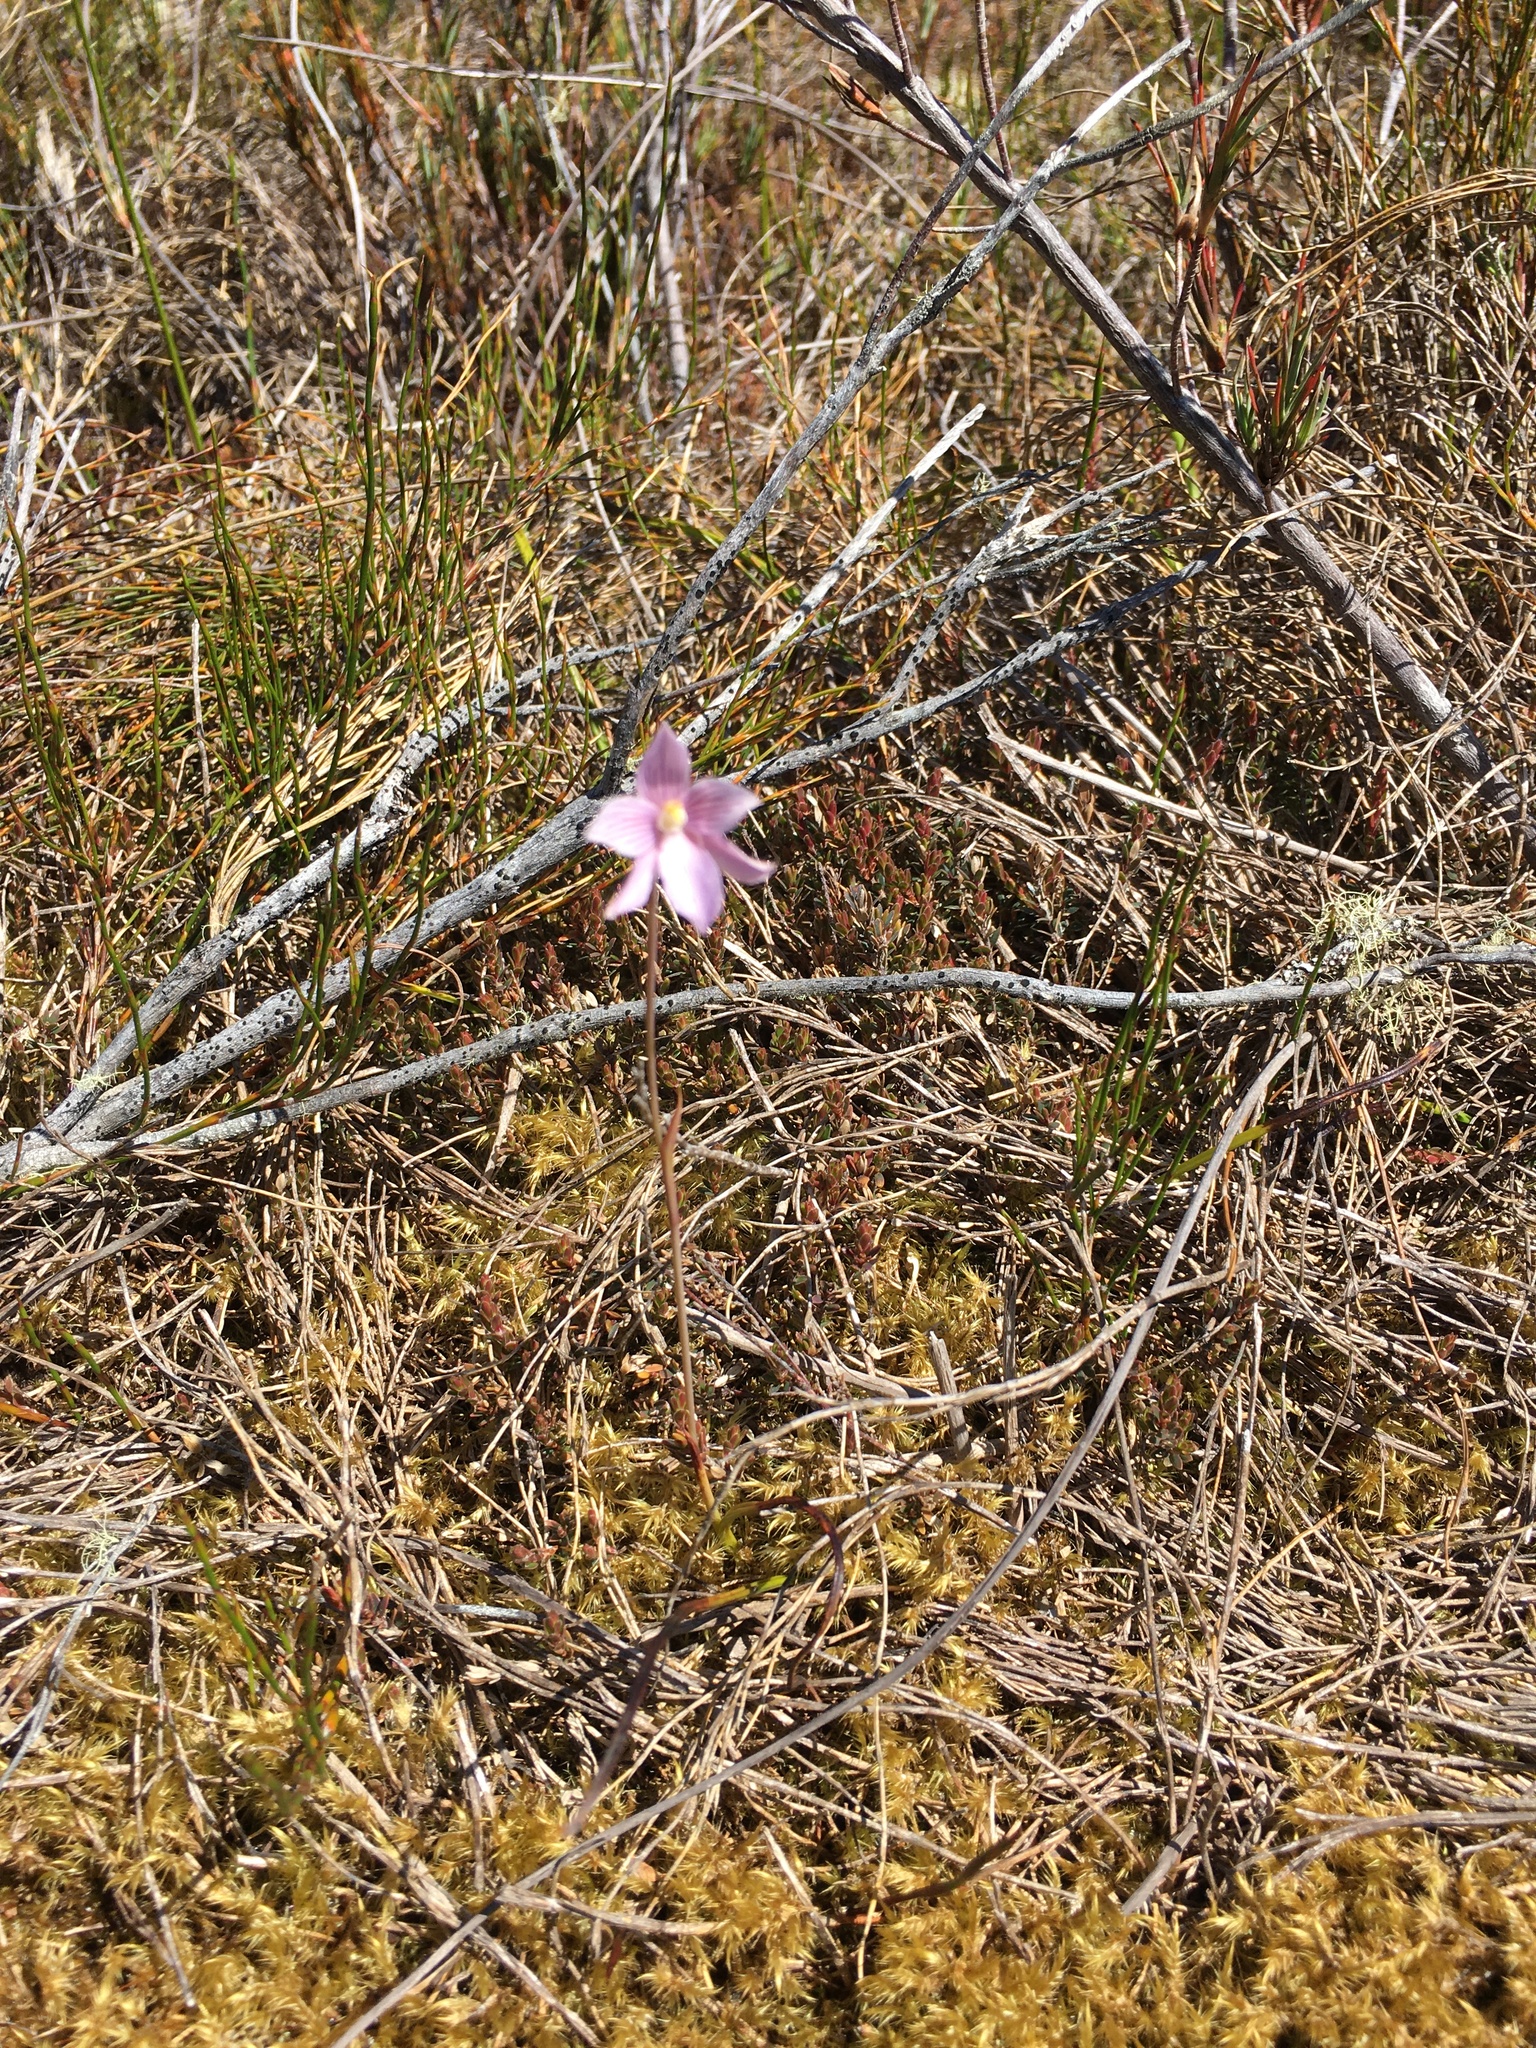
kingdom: Plantae
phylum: Tracheophyta
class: Liliopsida
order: Asparagales
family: Orchidaceae
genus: Thelymitra
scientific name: Thelymitra cyanea
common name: Blue sun-orchid
